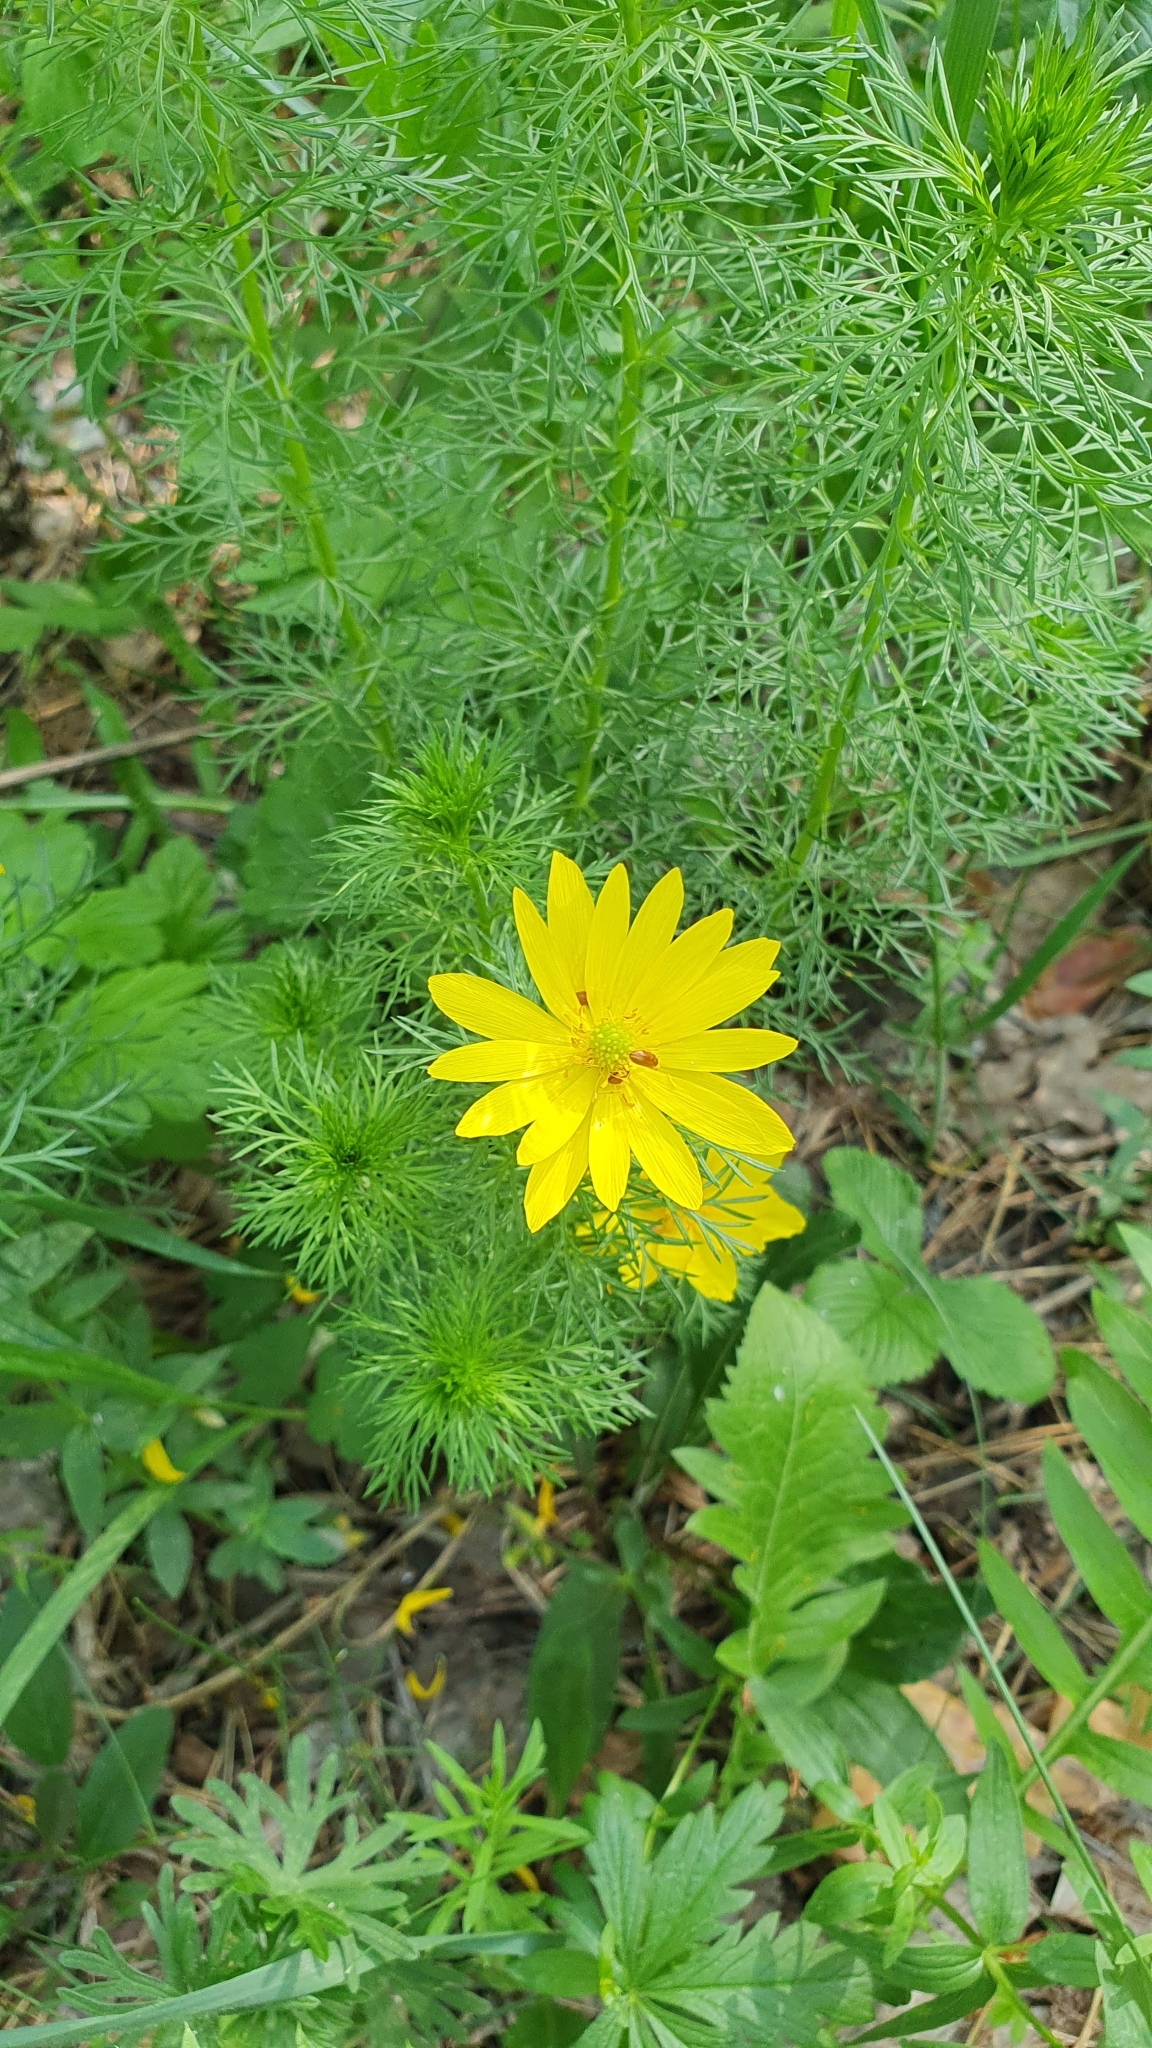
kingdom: Plantae
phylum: Tracheophyta
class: Magnoliopsida
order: Ranunculales
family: Ranunculaceae
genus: Adonis
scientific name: Adonis vernalis
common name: Yellow pheasants-eye
